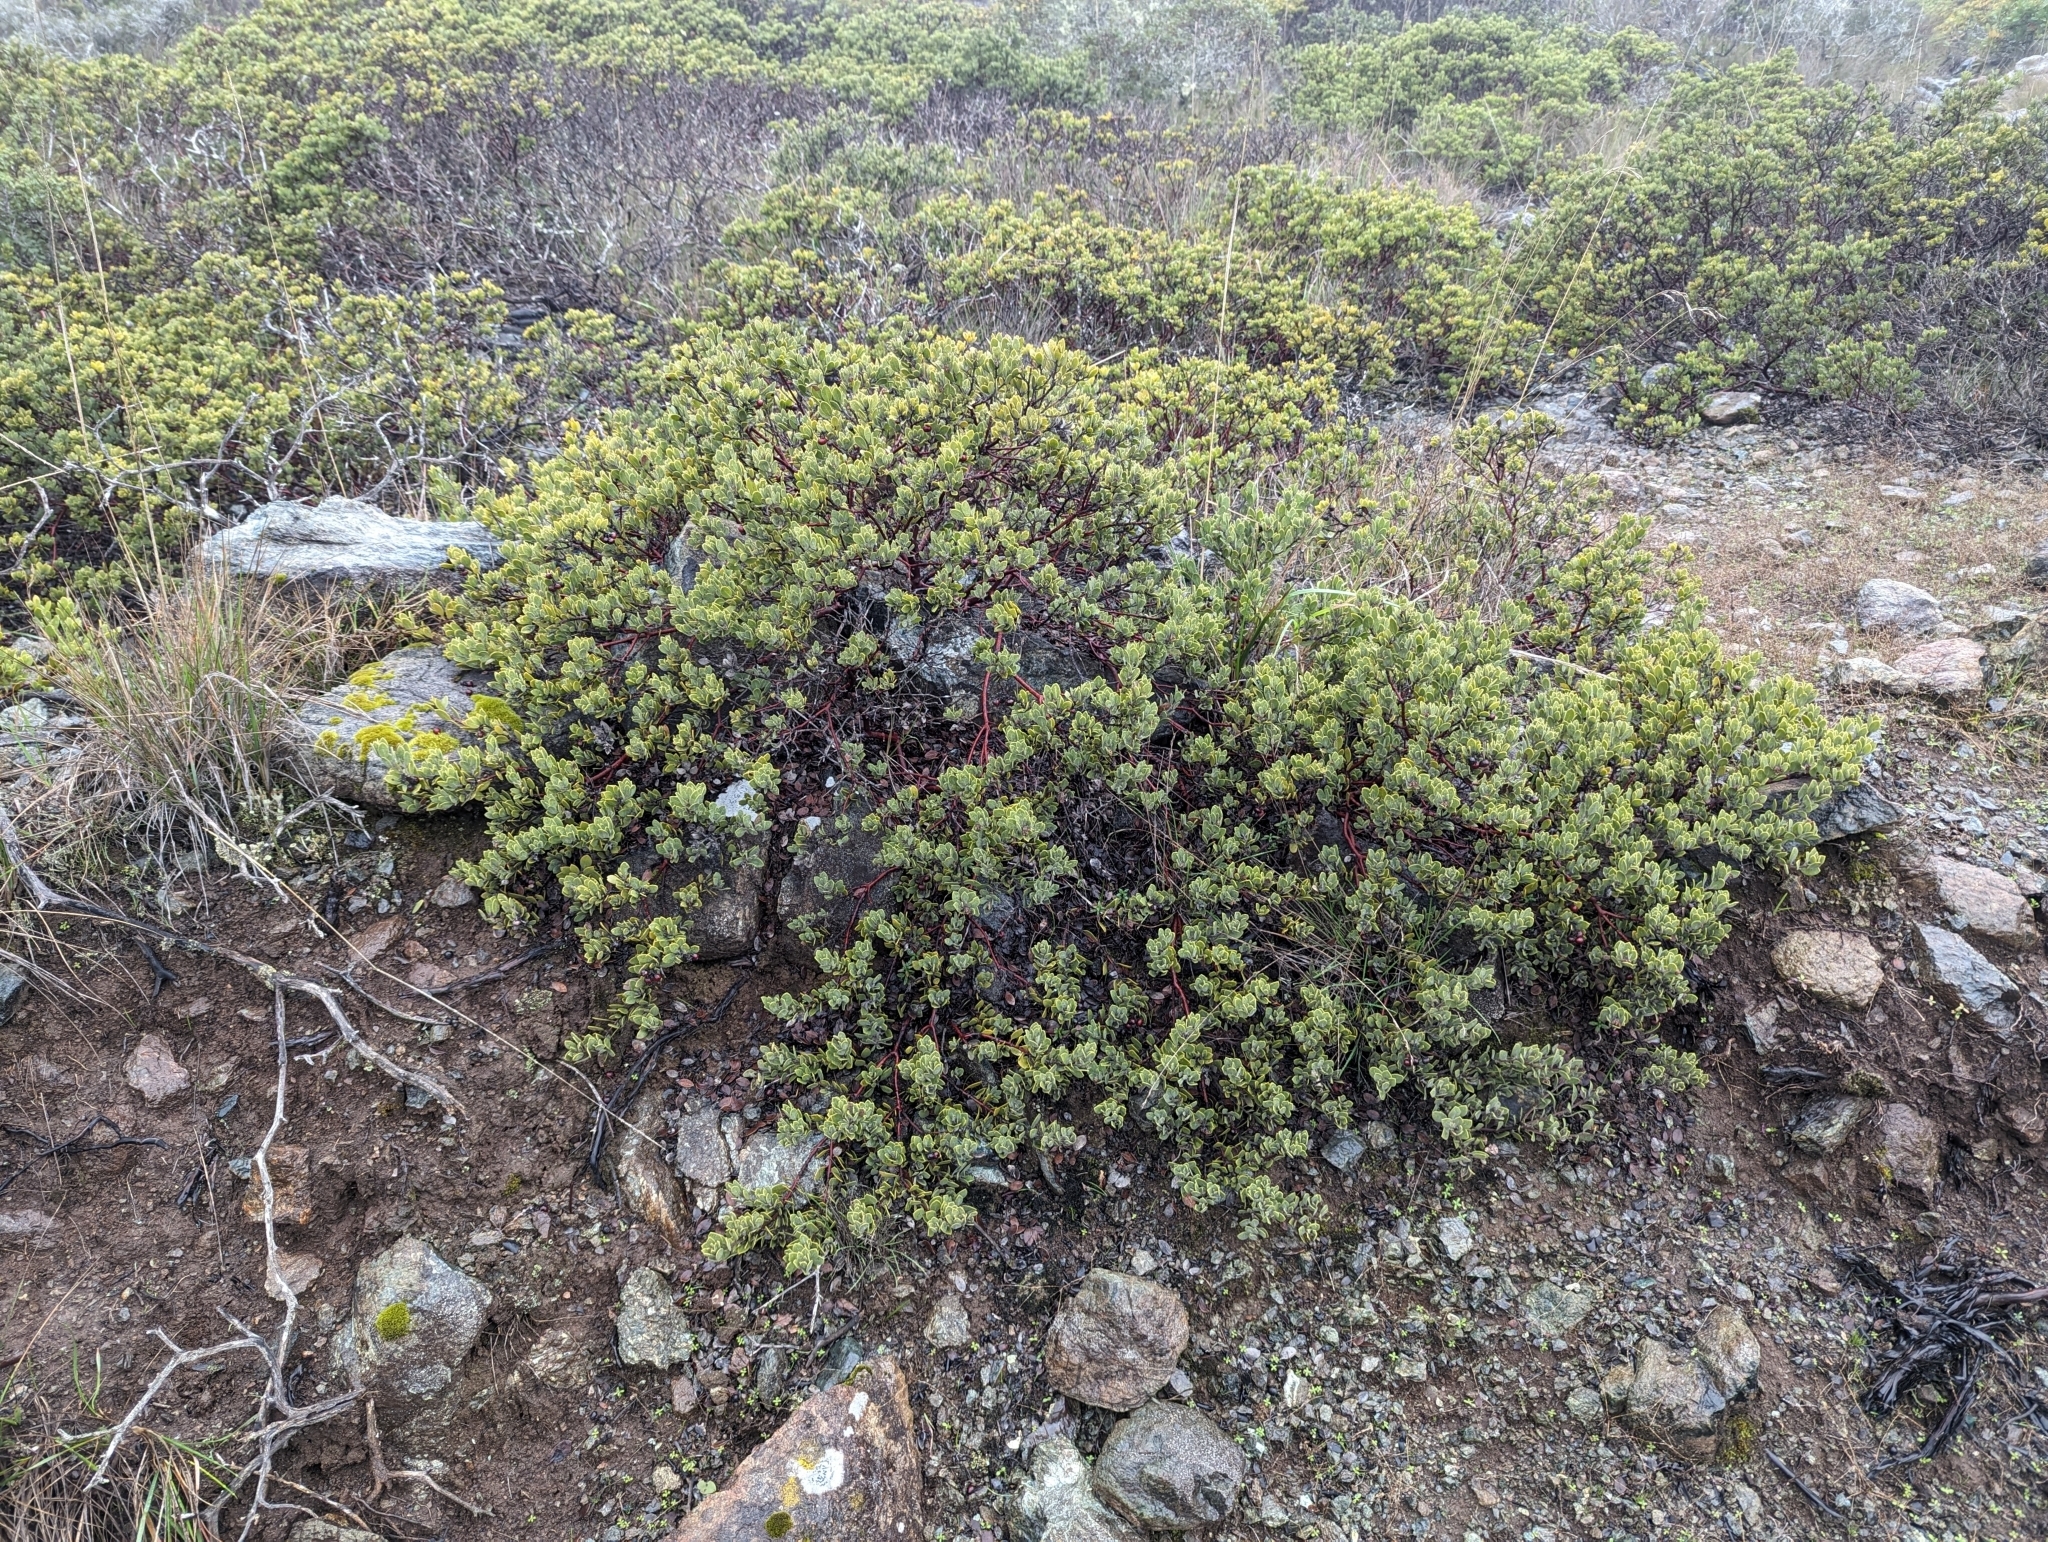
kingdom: Plantae
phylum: Tracheophyta
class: Magnoliopsida
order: Ericales
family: Ericaceae
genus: Arctostaphylos
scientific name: Arctostaphylos montana
